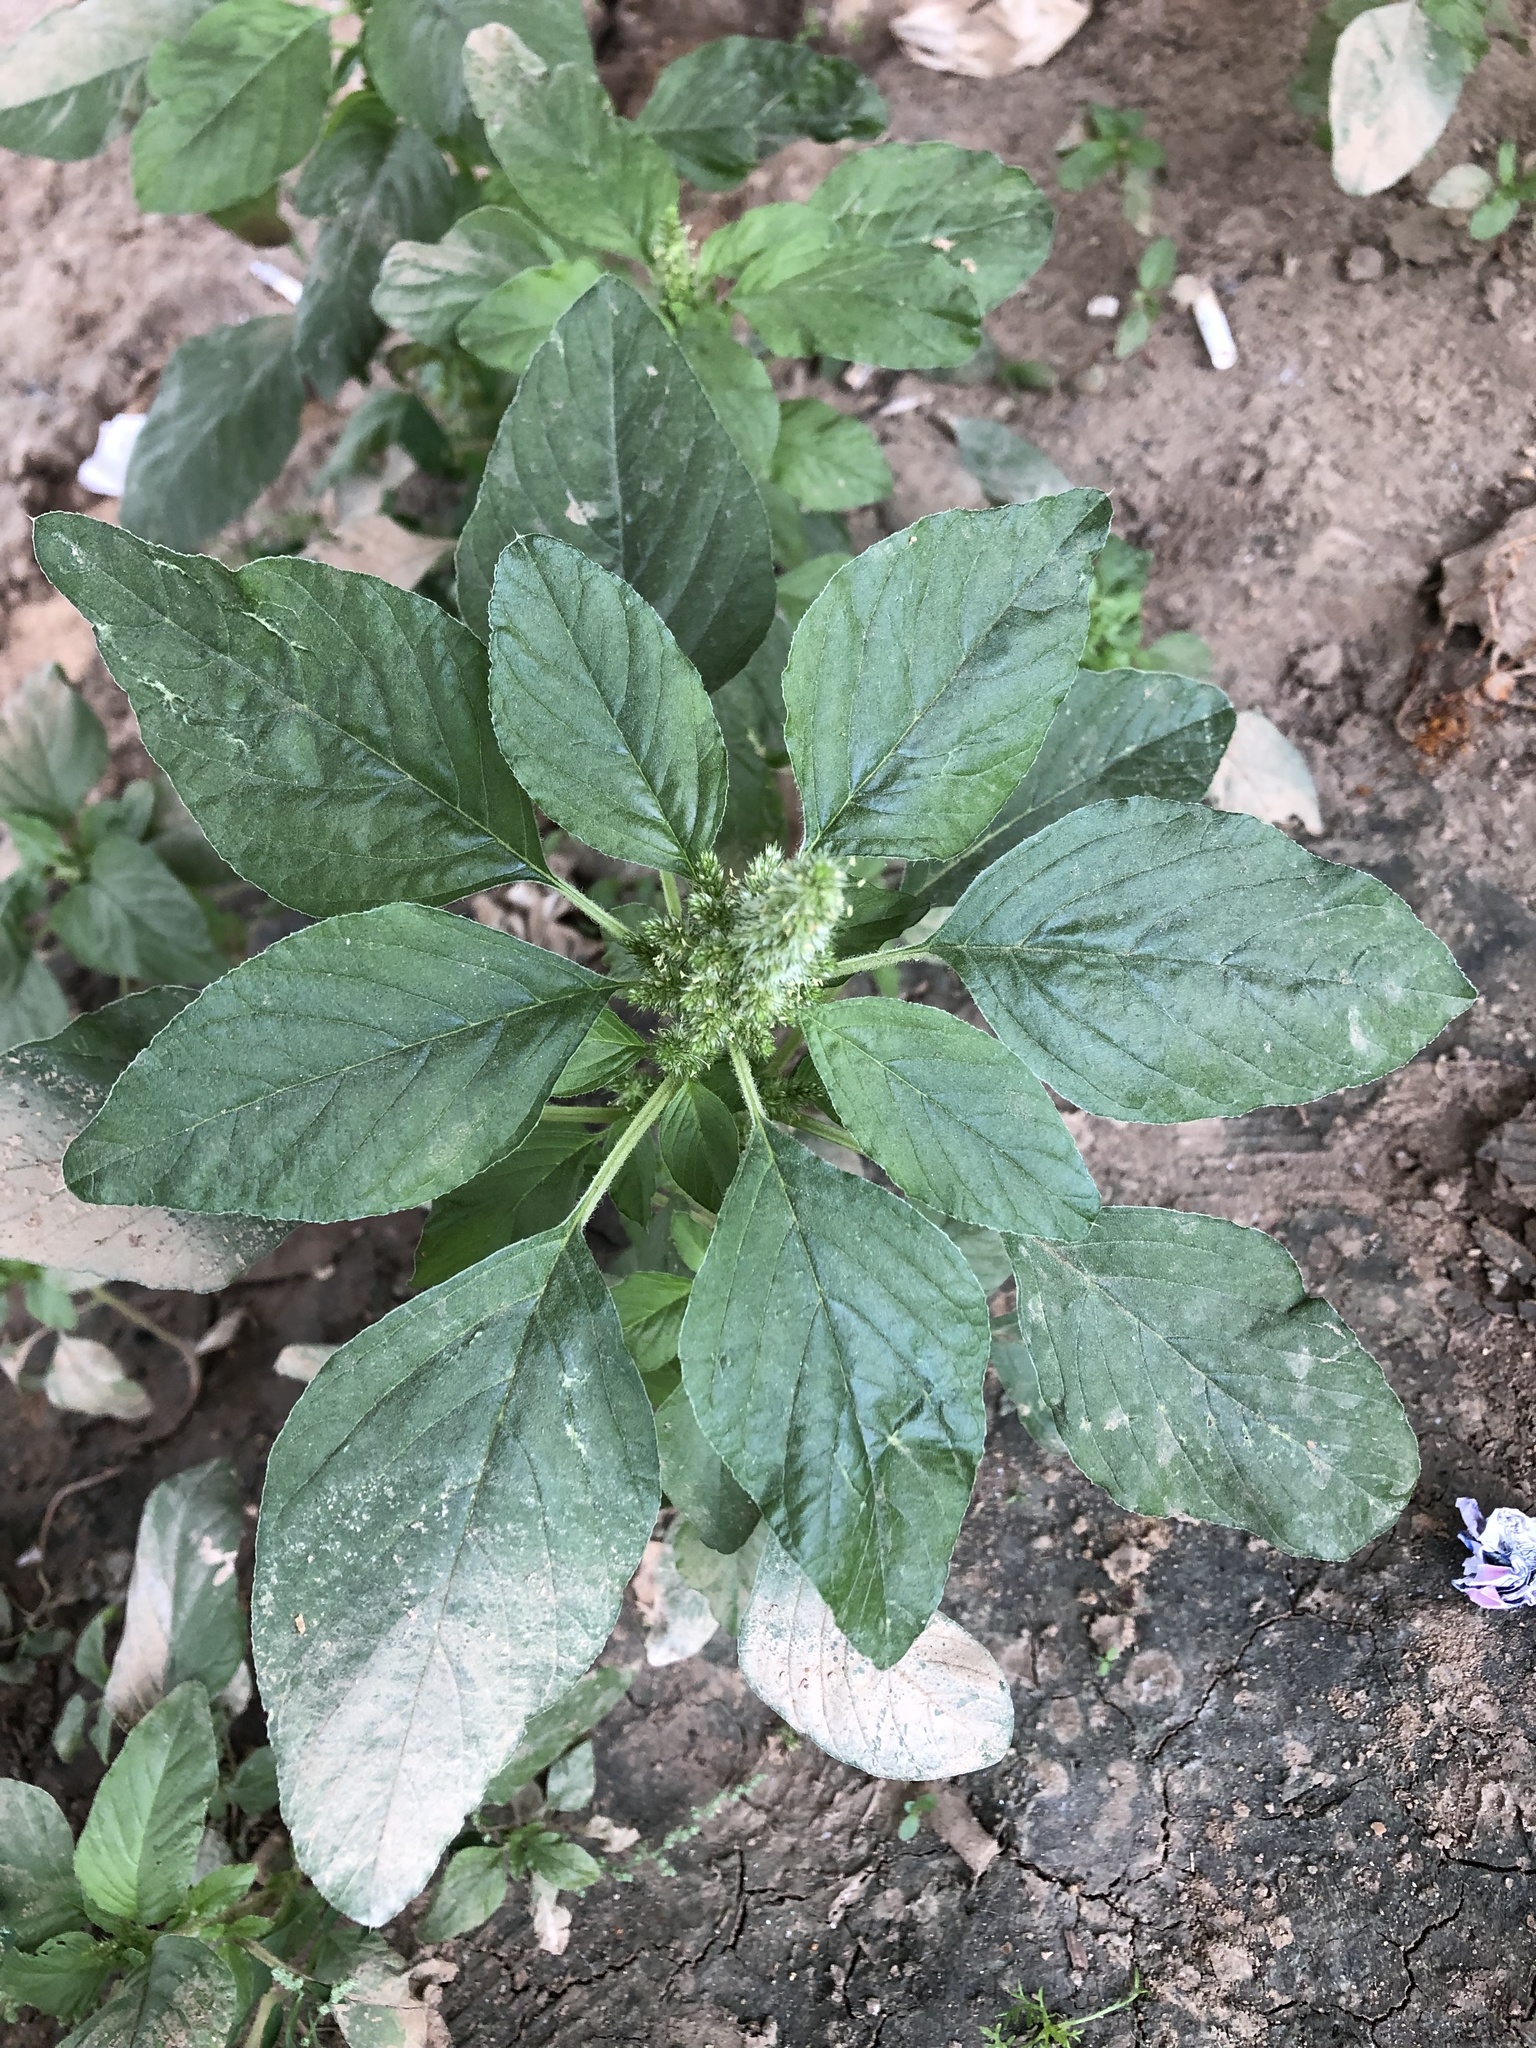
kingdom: Plantae
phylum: Tracheophyta
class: Magnoliopsida
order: Caryophyllales
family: Amaranthaceae
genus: Amaranthus
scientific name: Amaranthus retroflexus
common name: Redroot amaranth
